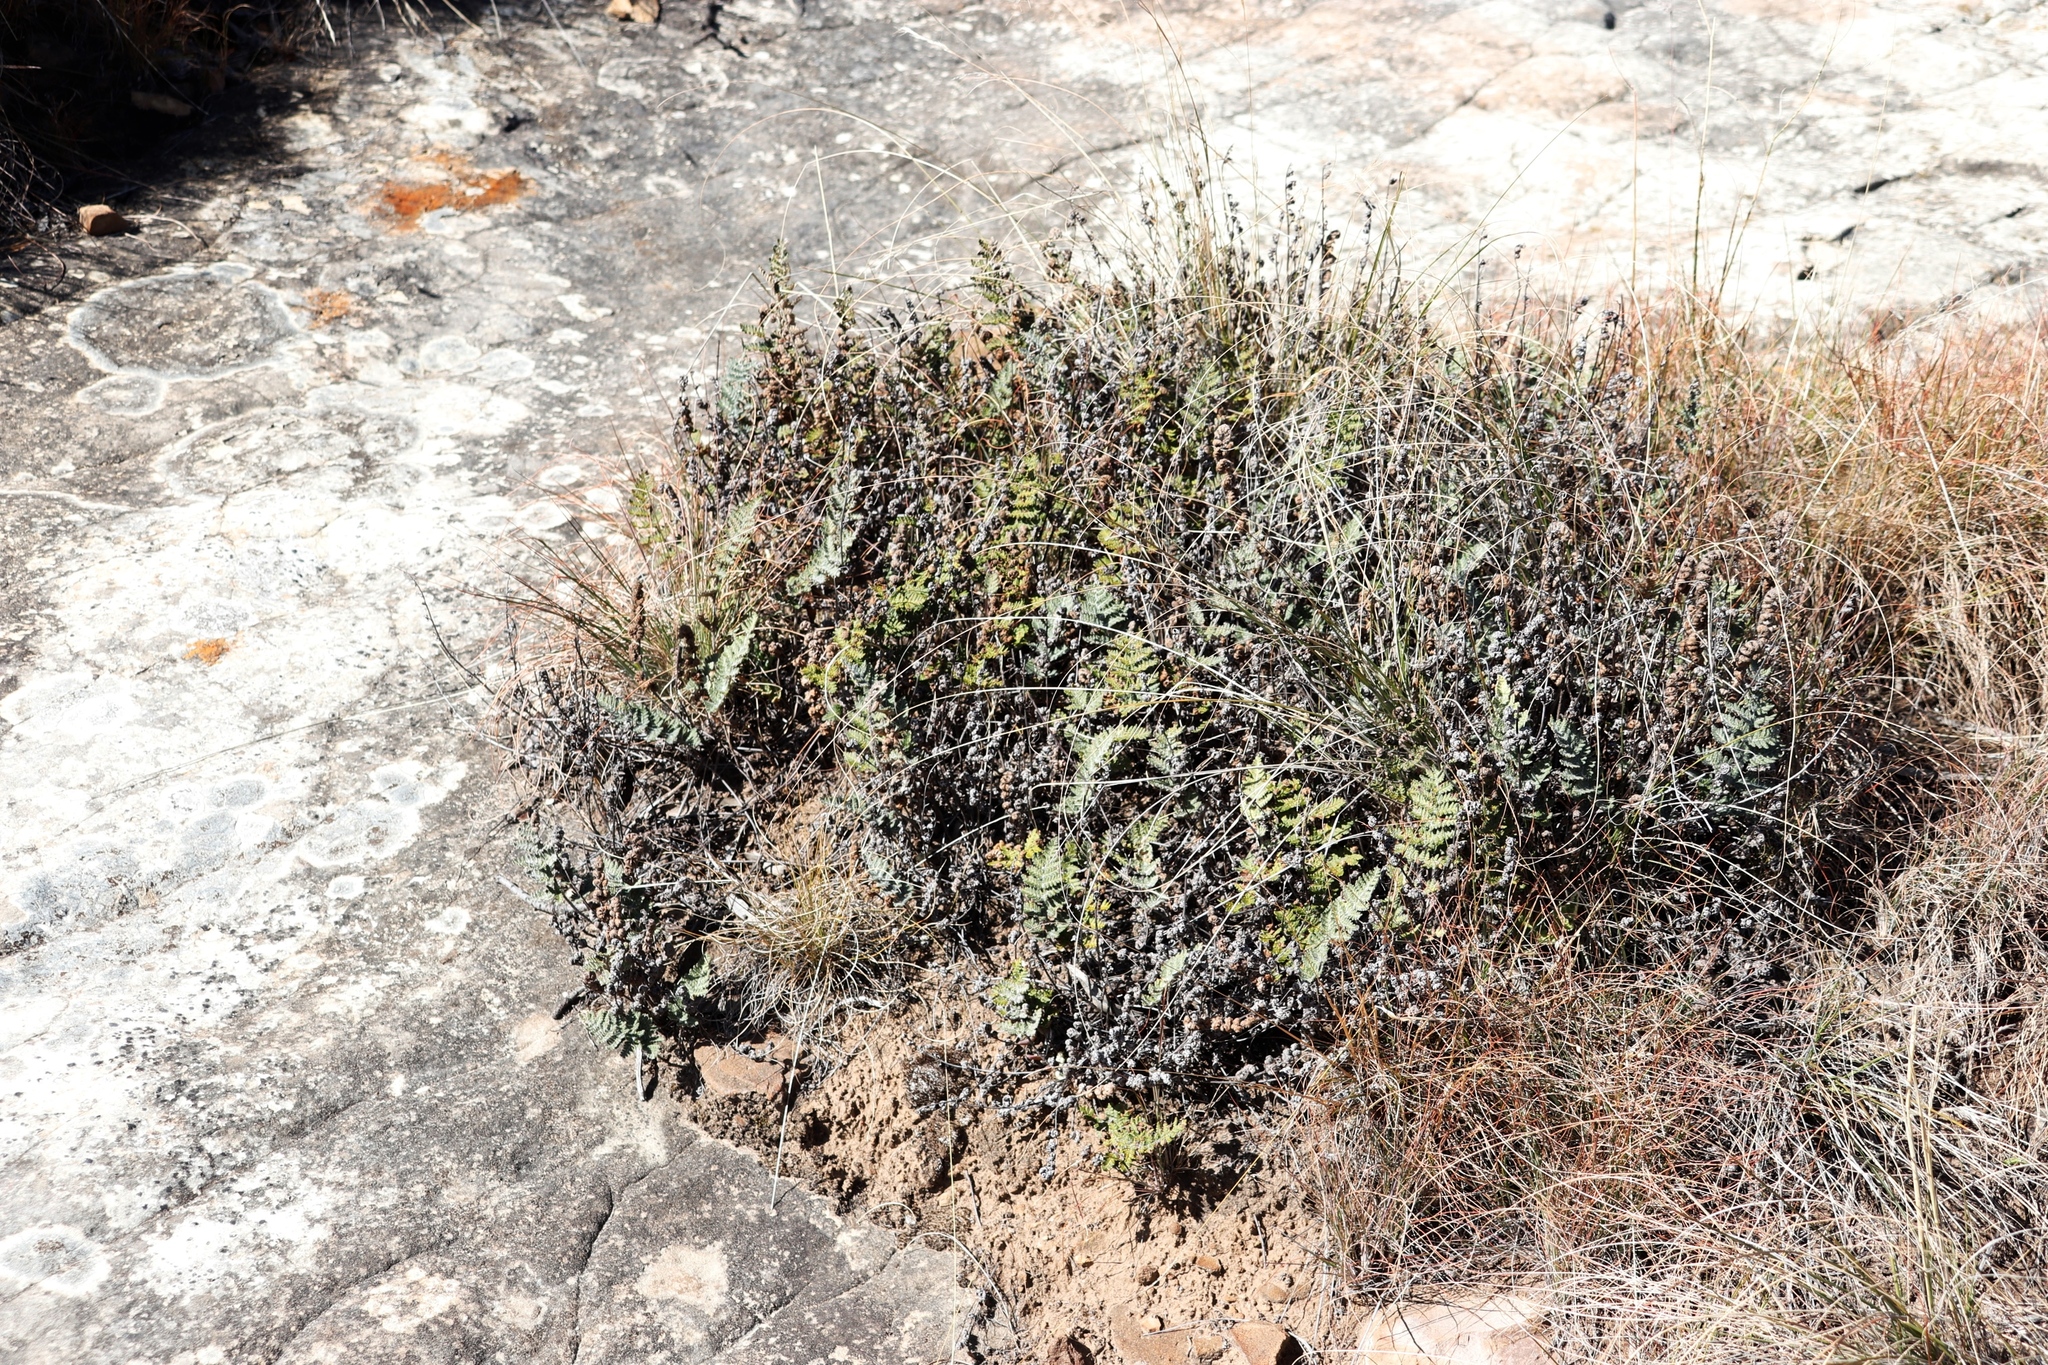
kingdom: Plantae
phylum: Tracheophyta
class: Polypodiopsida
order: Polypodiales
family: Pteridaceae
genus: Cheilanthes
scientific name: Cheilanthes eckloniana
